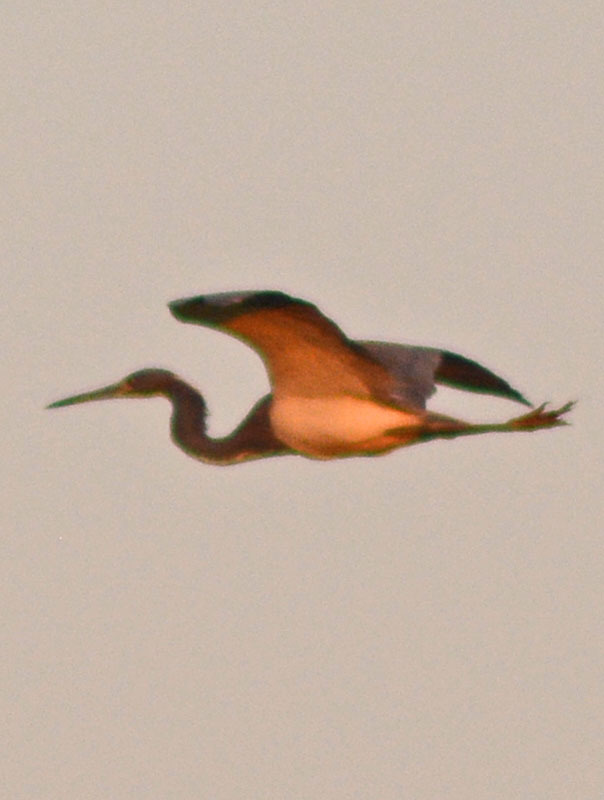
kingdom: Animalia
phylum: Chordata
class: Aves
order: Pelecaniformes
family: Ardeidae
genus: Egretta
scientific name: Egretta tricolor
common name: Tricolored heron
